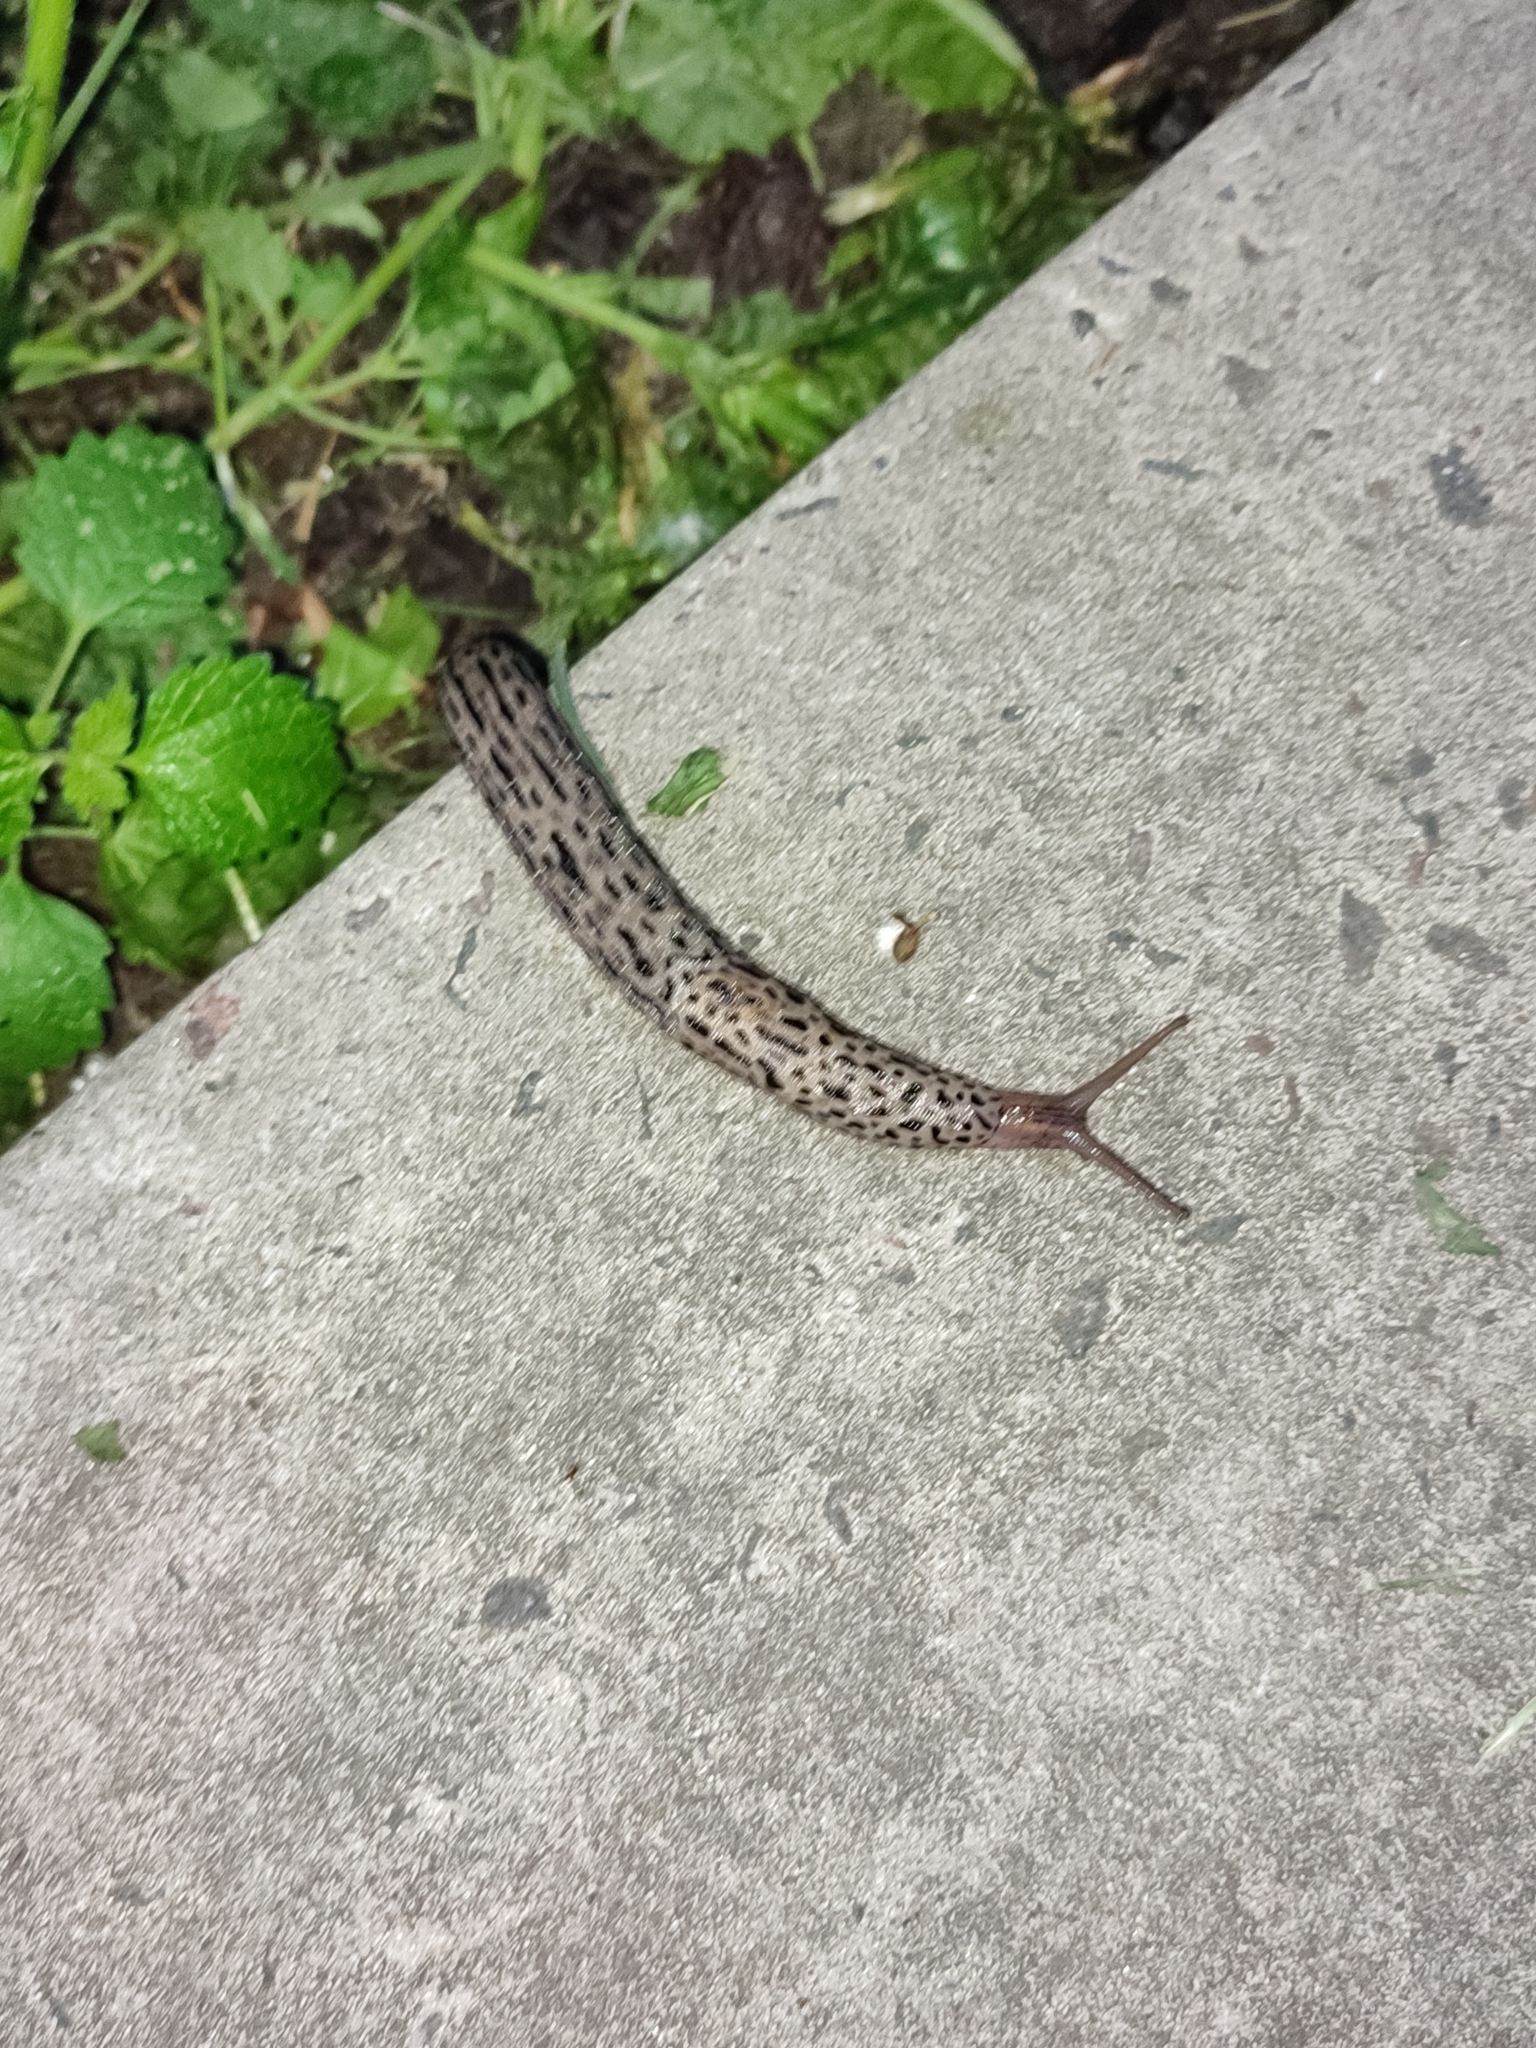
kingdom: Animalia
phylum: Mollusca
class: Gastropoda
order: Stylommatophora
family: Limacidae
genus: Limax
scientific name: Limax maximus
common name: Great grey slug
